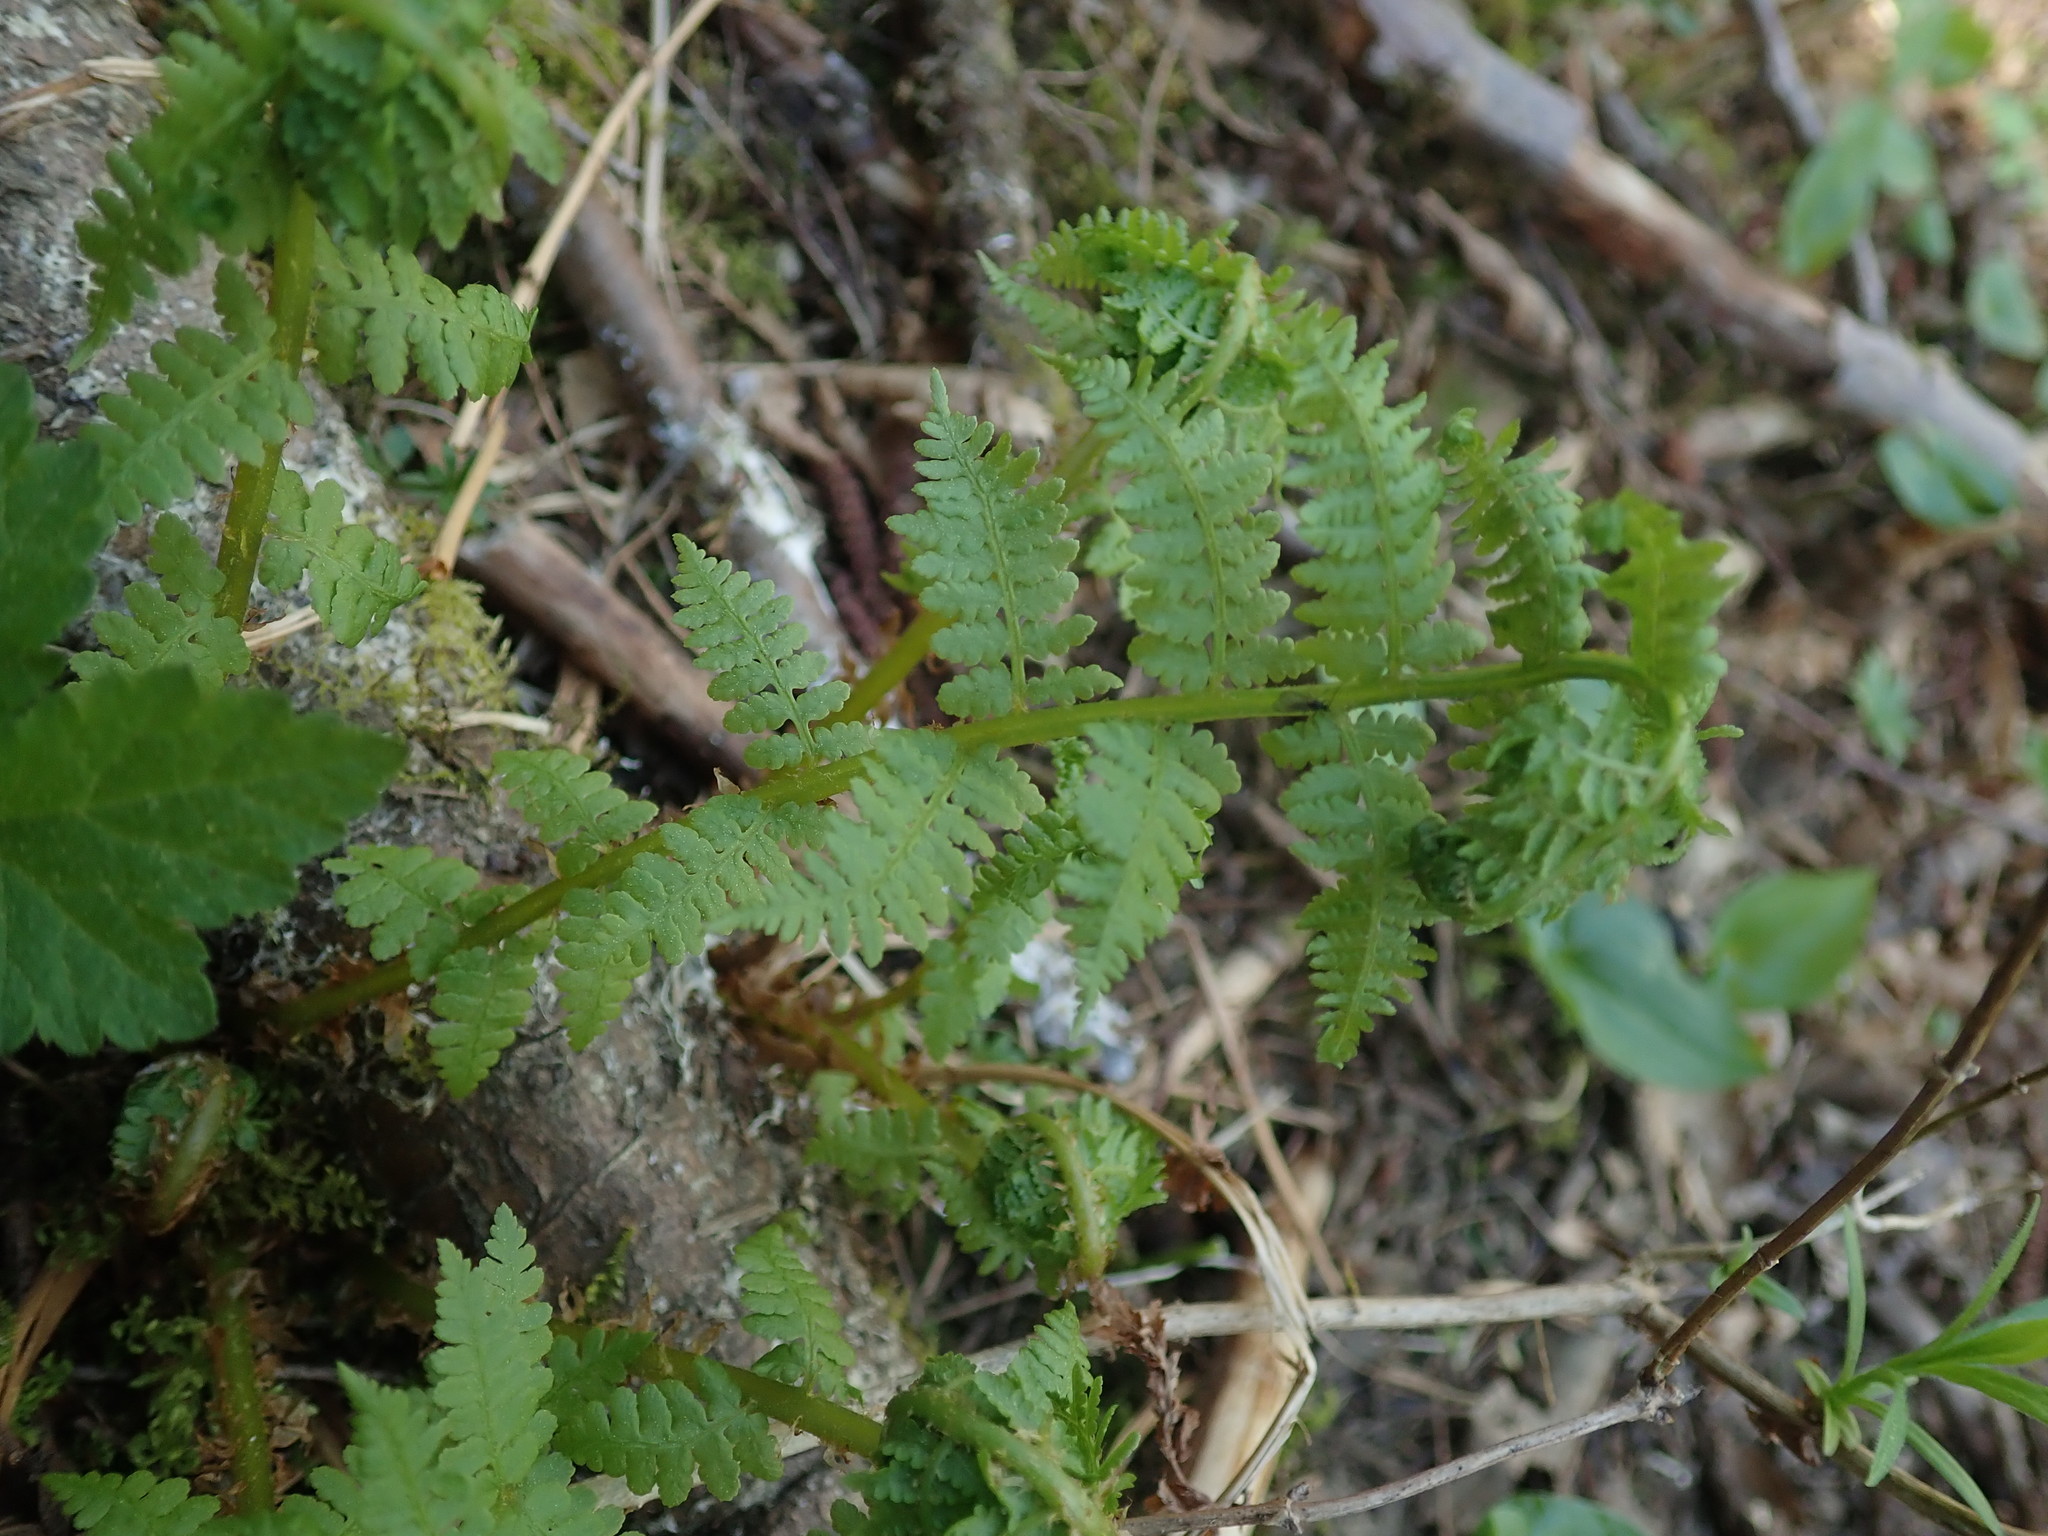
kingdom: Plantae
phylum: Tracheophyta
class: Polypodiopsida
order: Polypodiales
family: Athyriaceae
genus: Athyrium
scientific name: Athyrium filix-femina
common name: Lady fern
